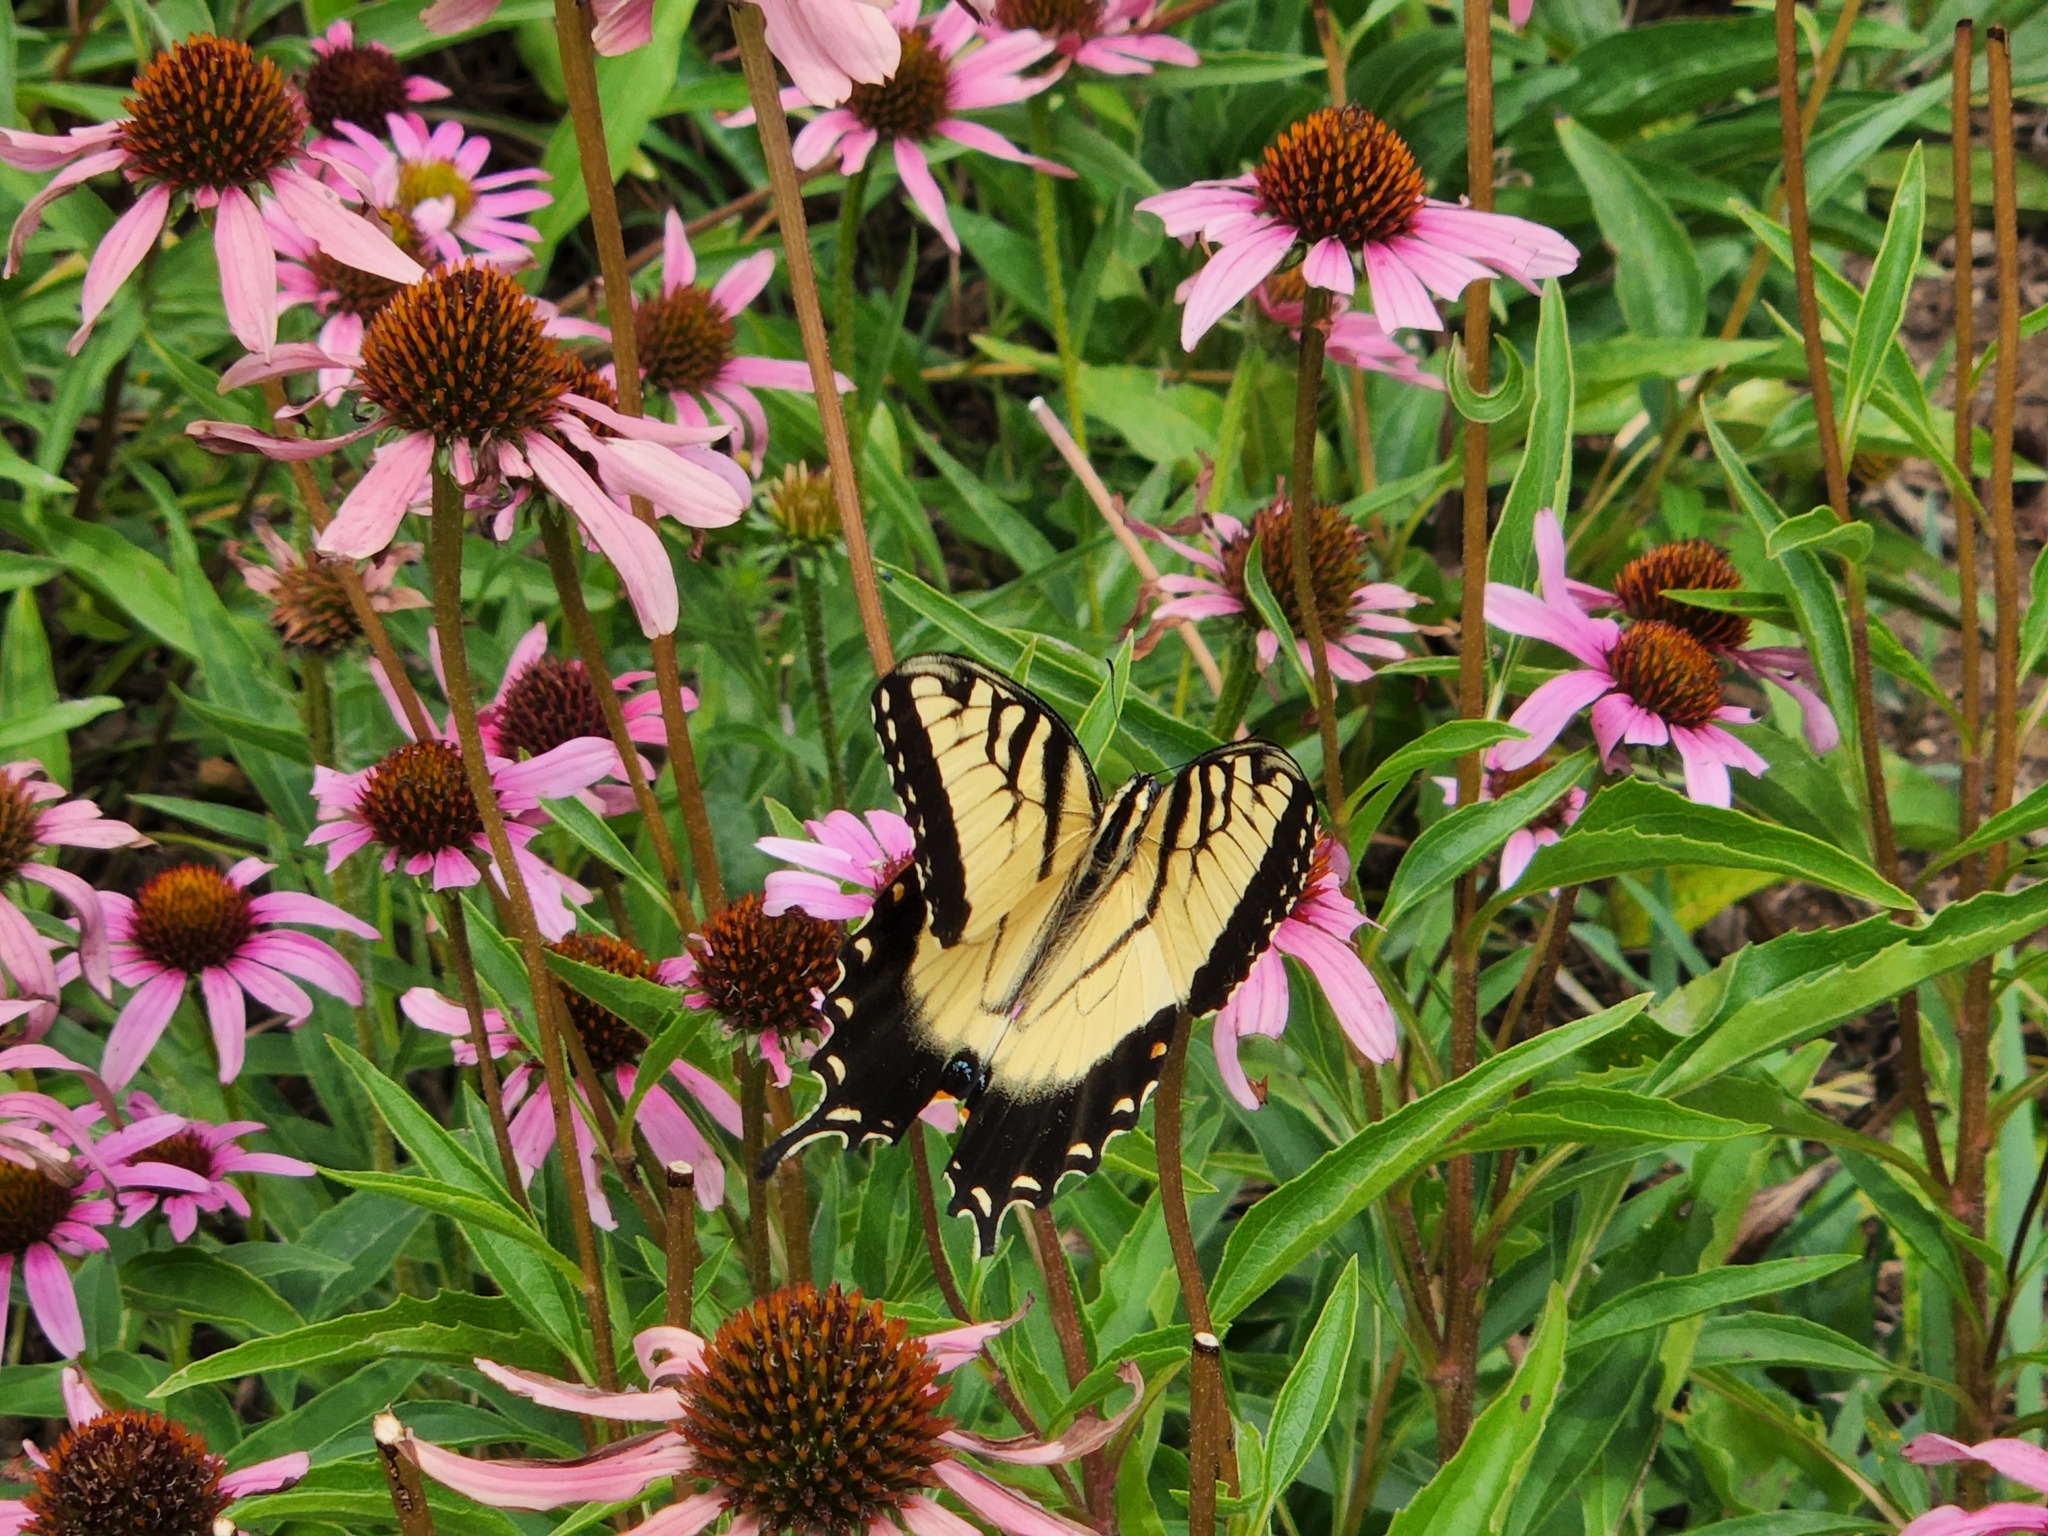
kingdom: Animalia
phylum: Arthropoda
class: Insecta
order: Lepidoptera
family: Papilionidae
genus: Papilio
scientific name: Papilio glaucus
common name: Tiger swallowtail
